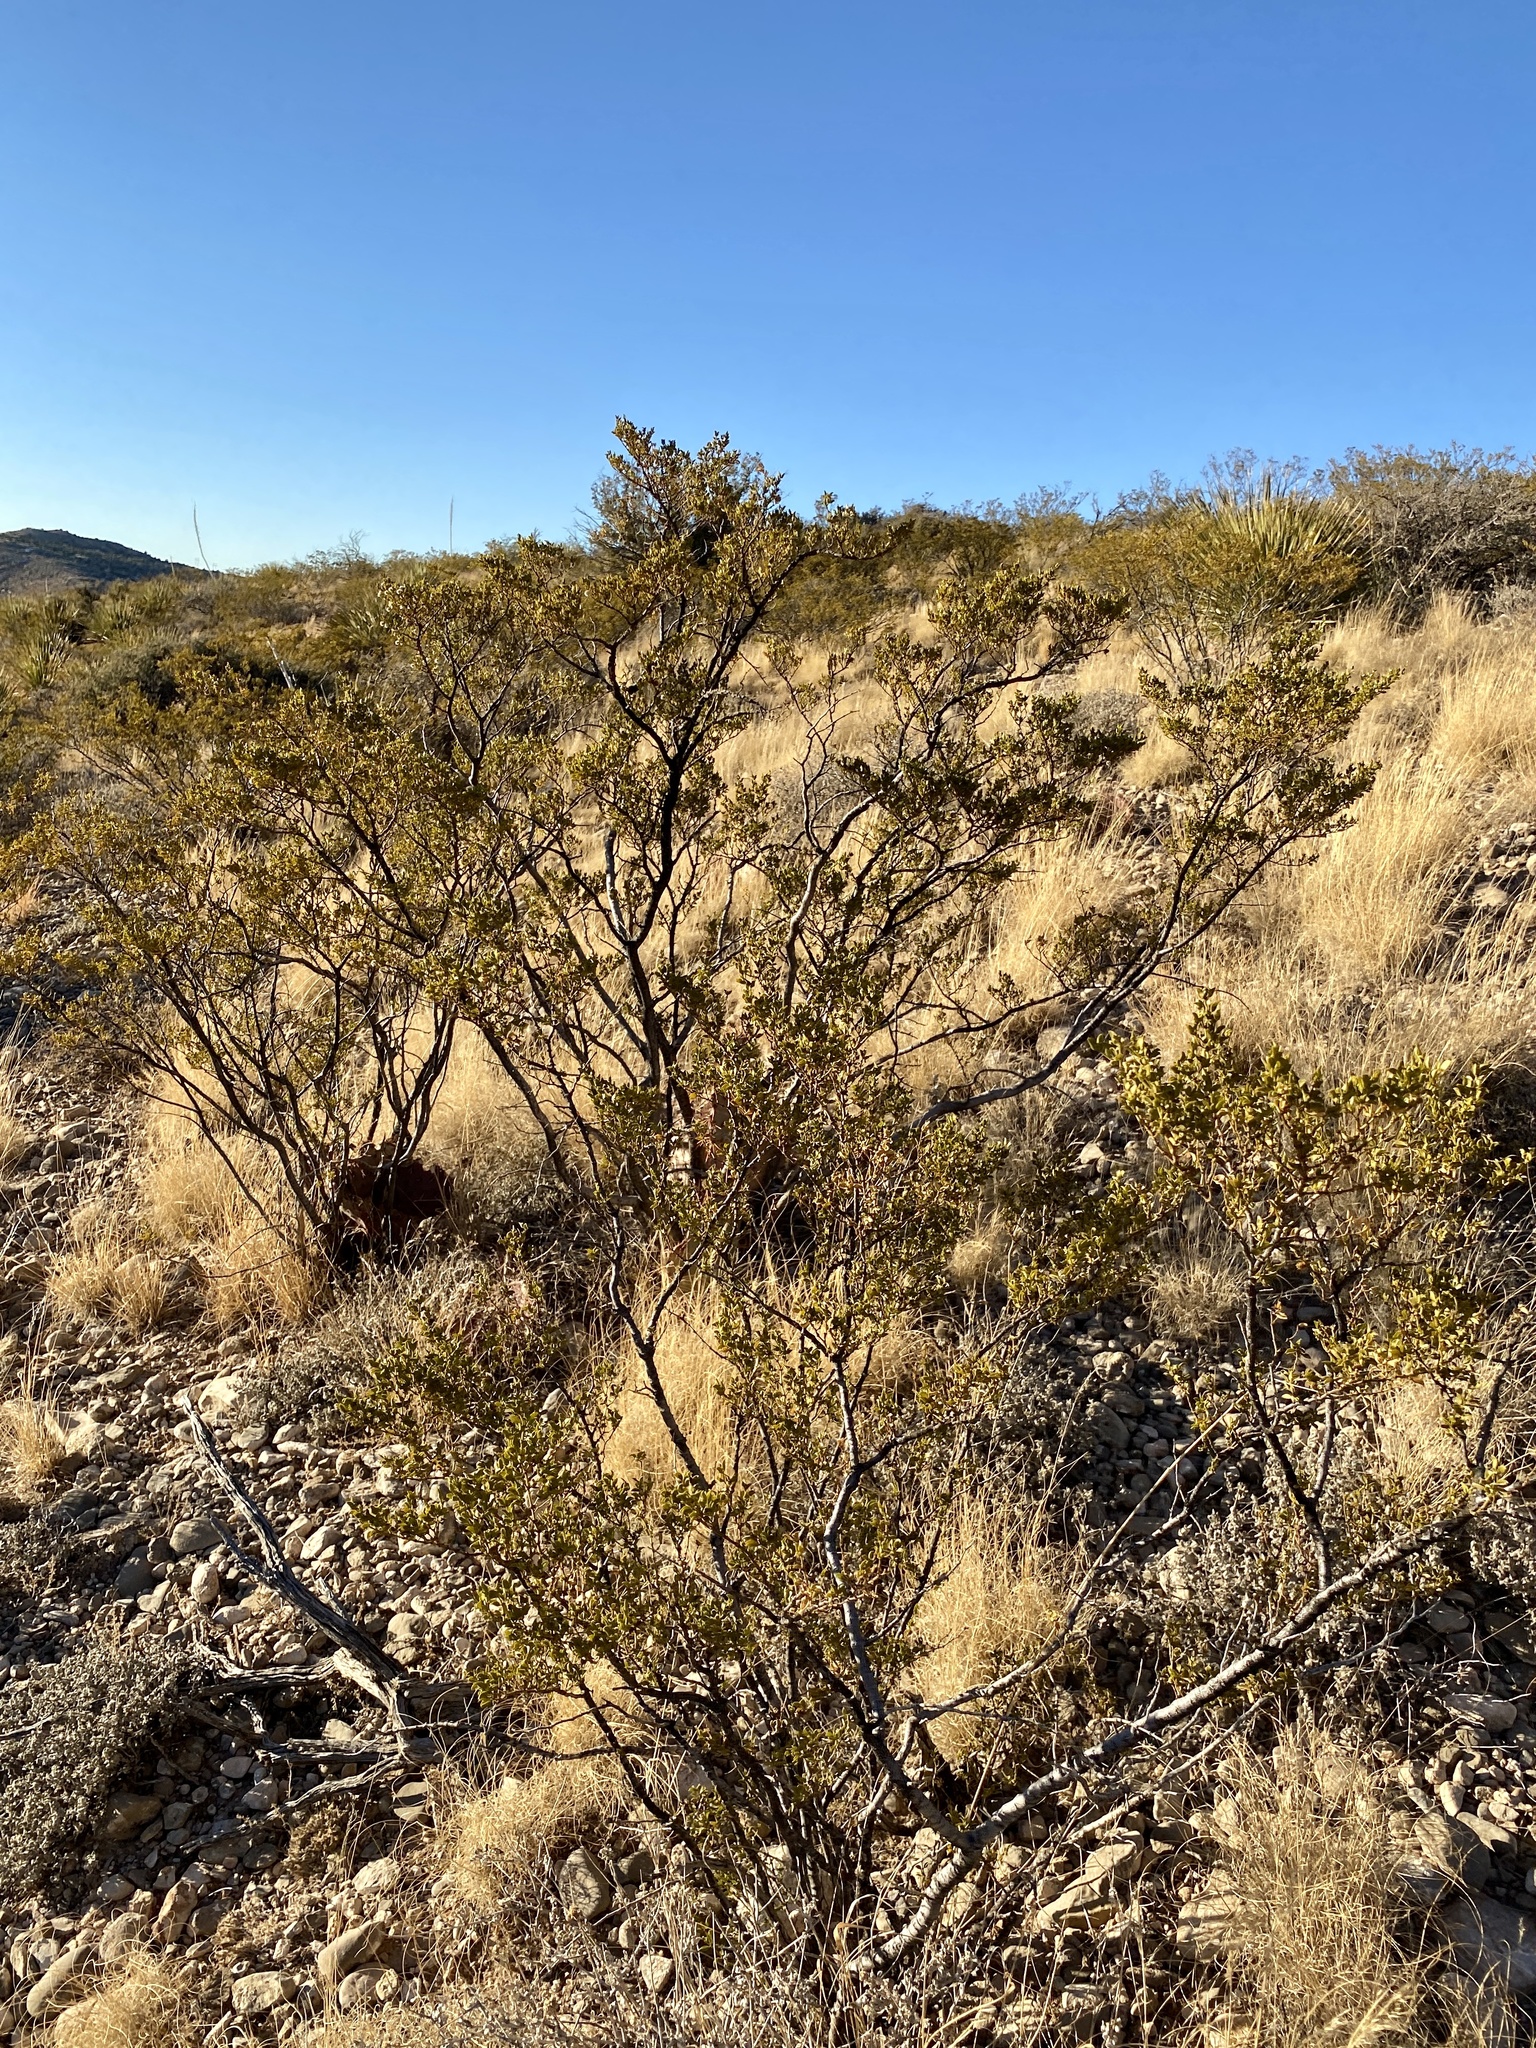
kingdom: Plantae
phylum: Tracheophyta
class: Magnoliopsida
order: Zygophyllales
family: Zygophyllaceae
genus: Larrea
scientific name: Larrea tridentata
